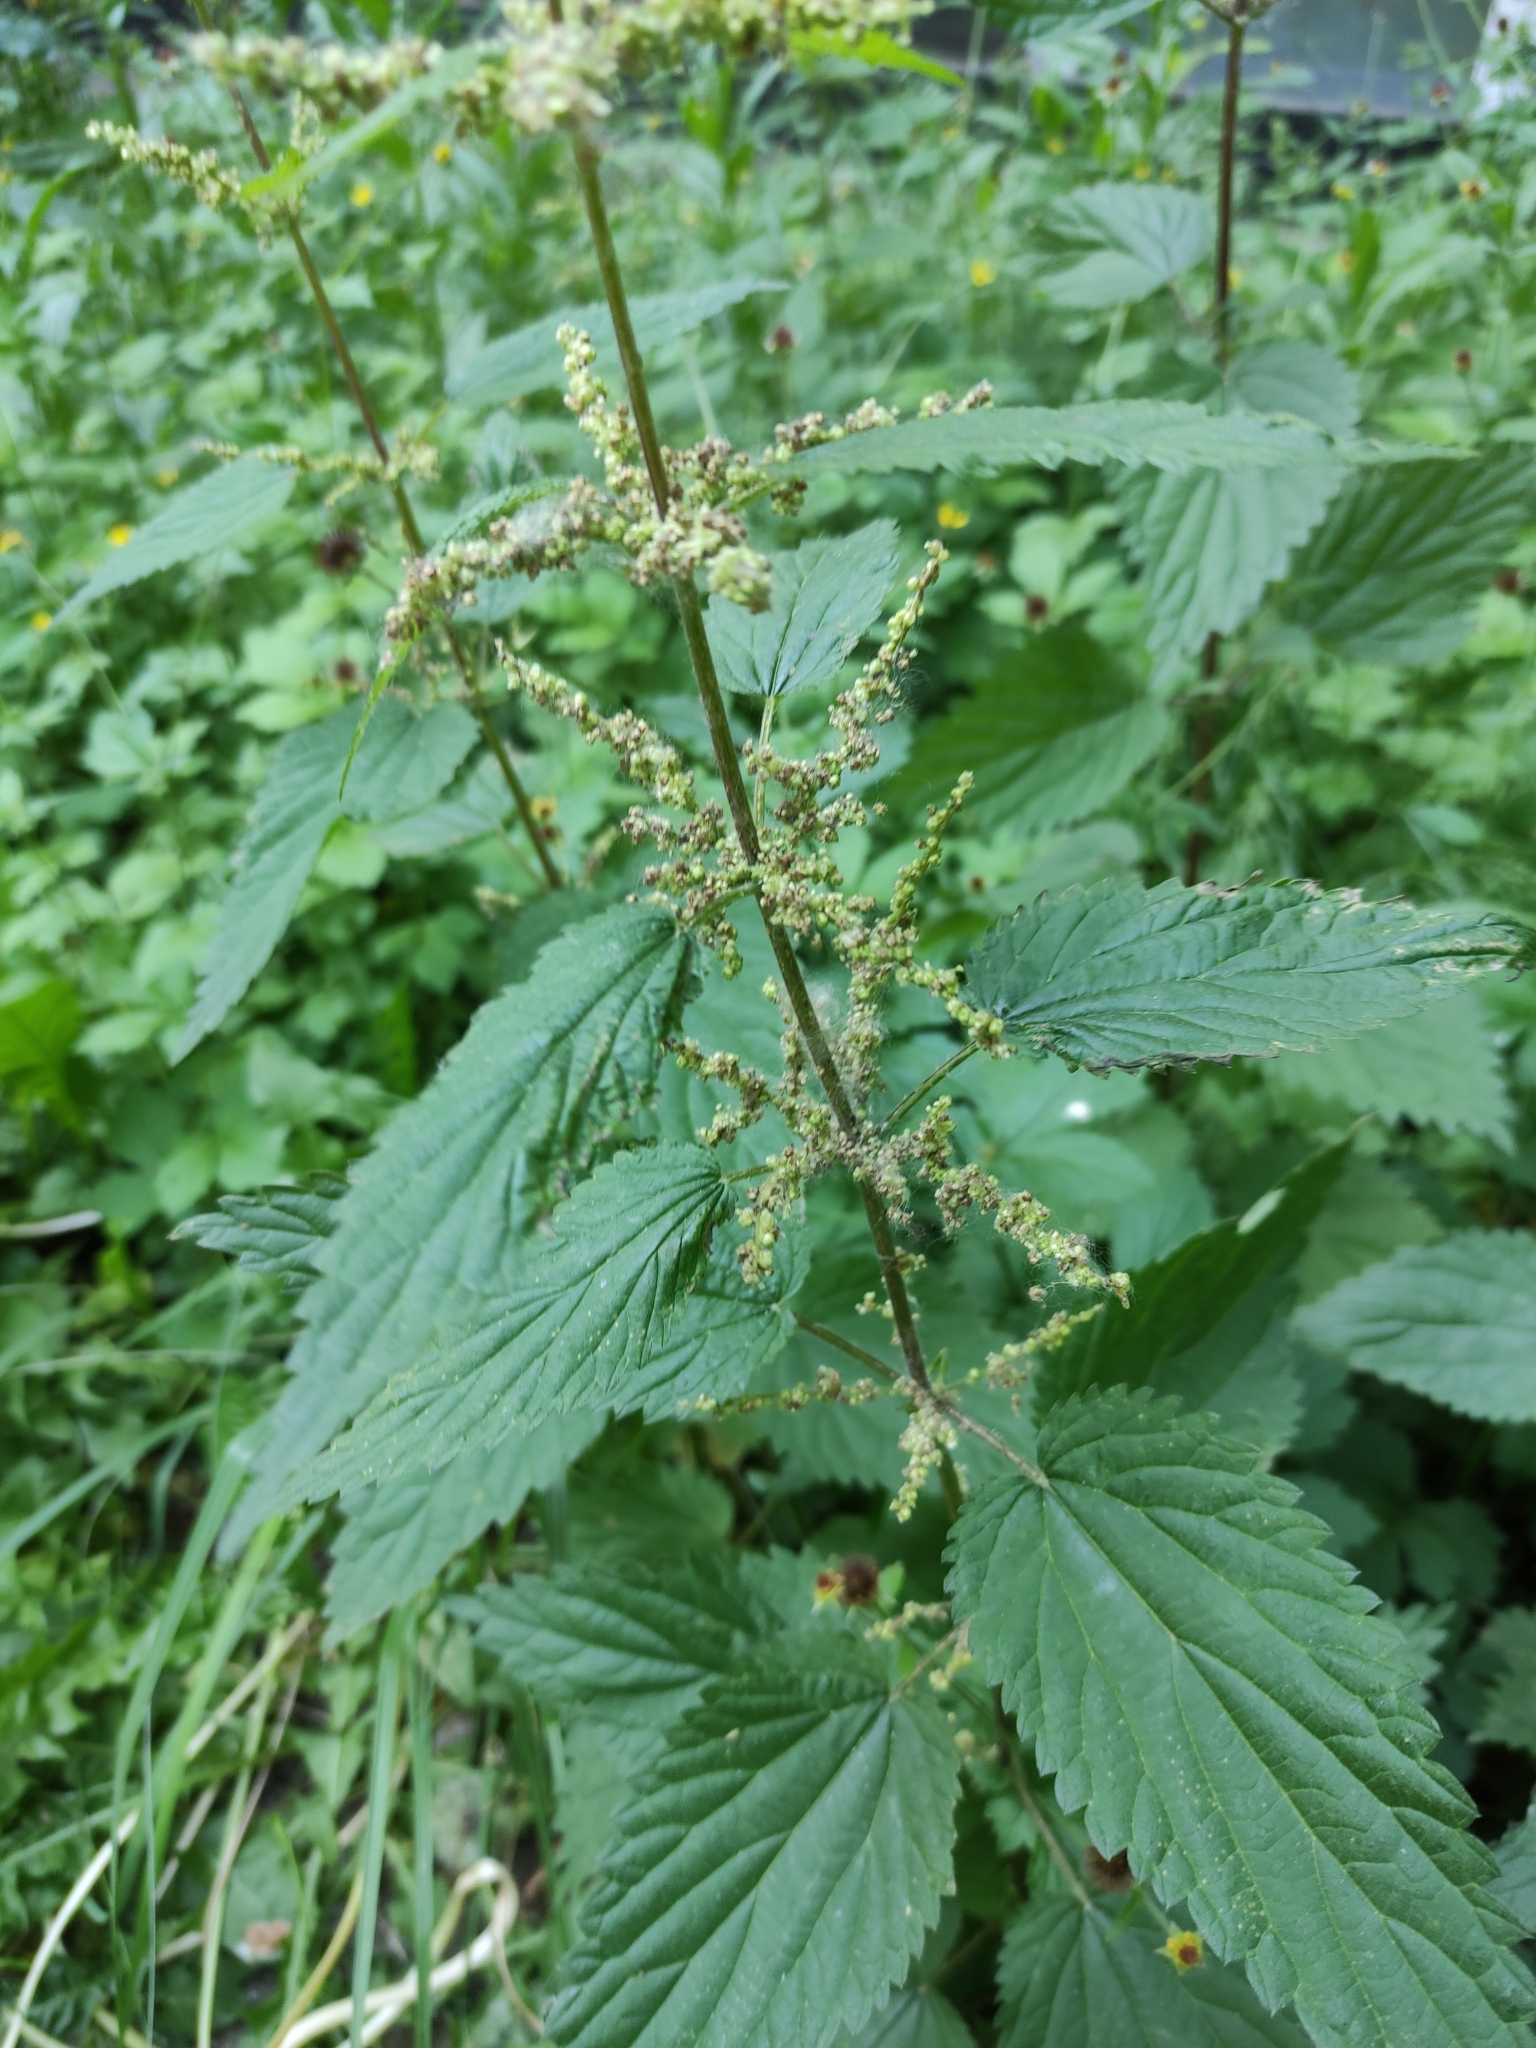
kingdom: Plantae
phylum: Tracheophyta
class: Magnoliopsida
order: Rosales
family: Urticaceae
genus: Urtica
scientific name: Urtica dioica
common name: Common nettle
